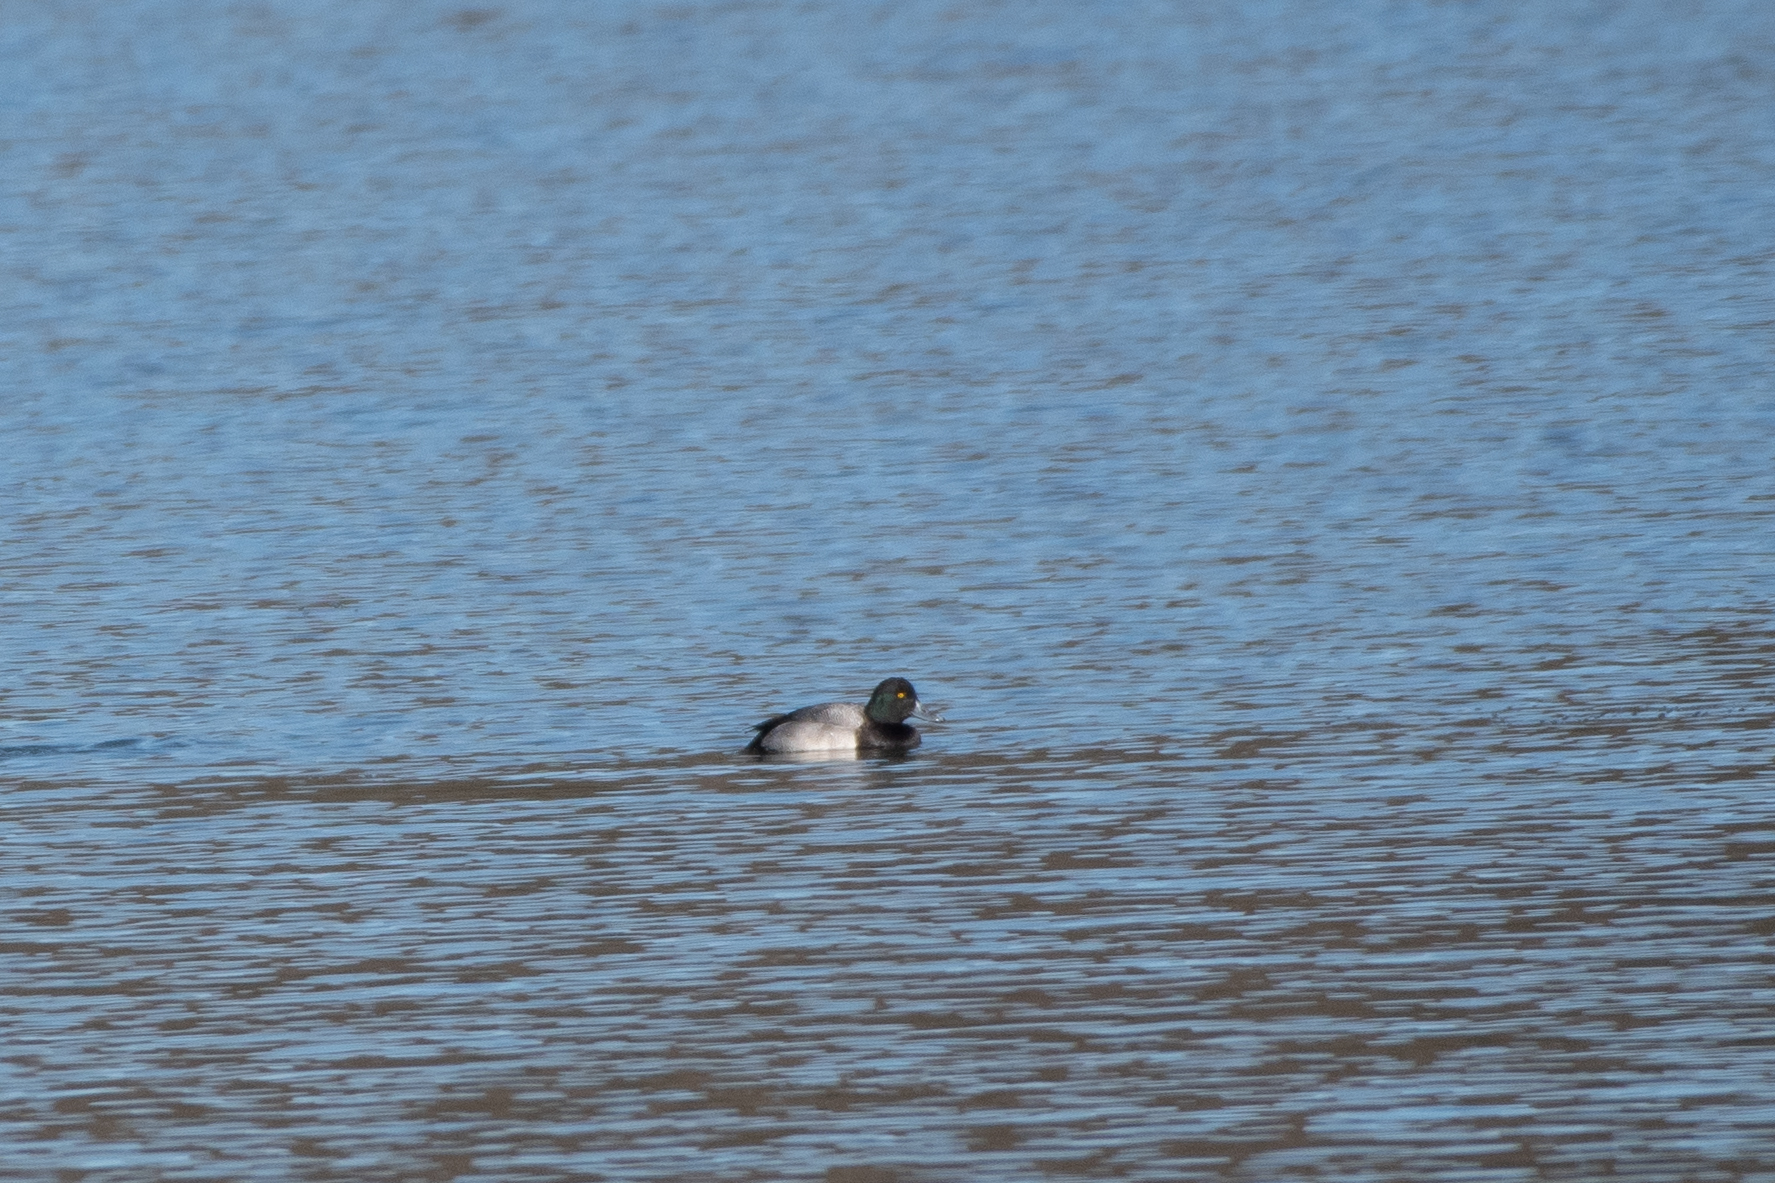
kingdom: Animalia
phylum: Chordata
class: Aves
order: Anseriformes
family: Anatidae
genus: Aythya
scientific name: Aythya marila
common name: Greater scaup
